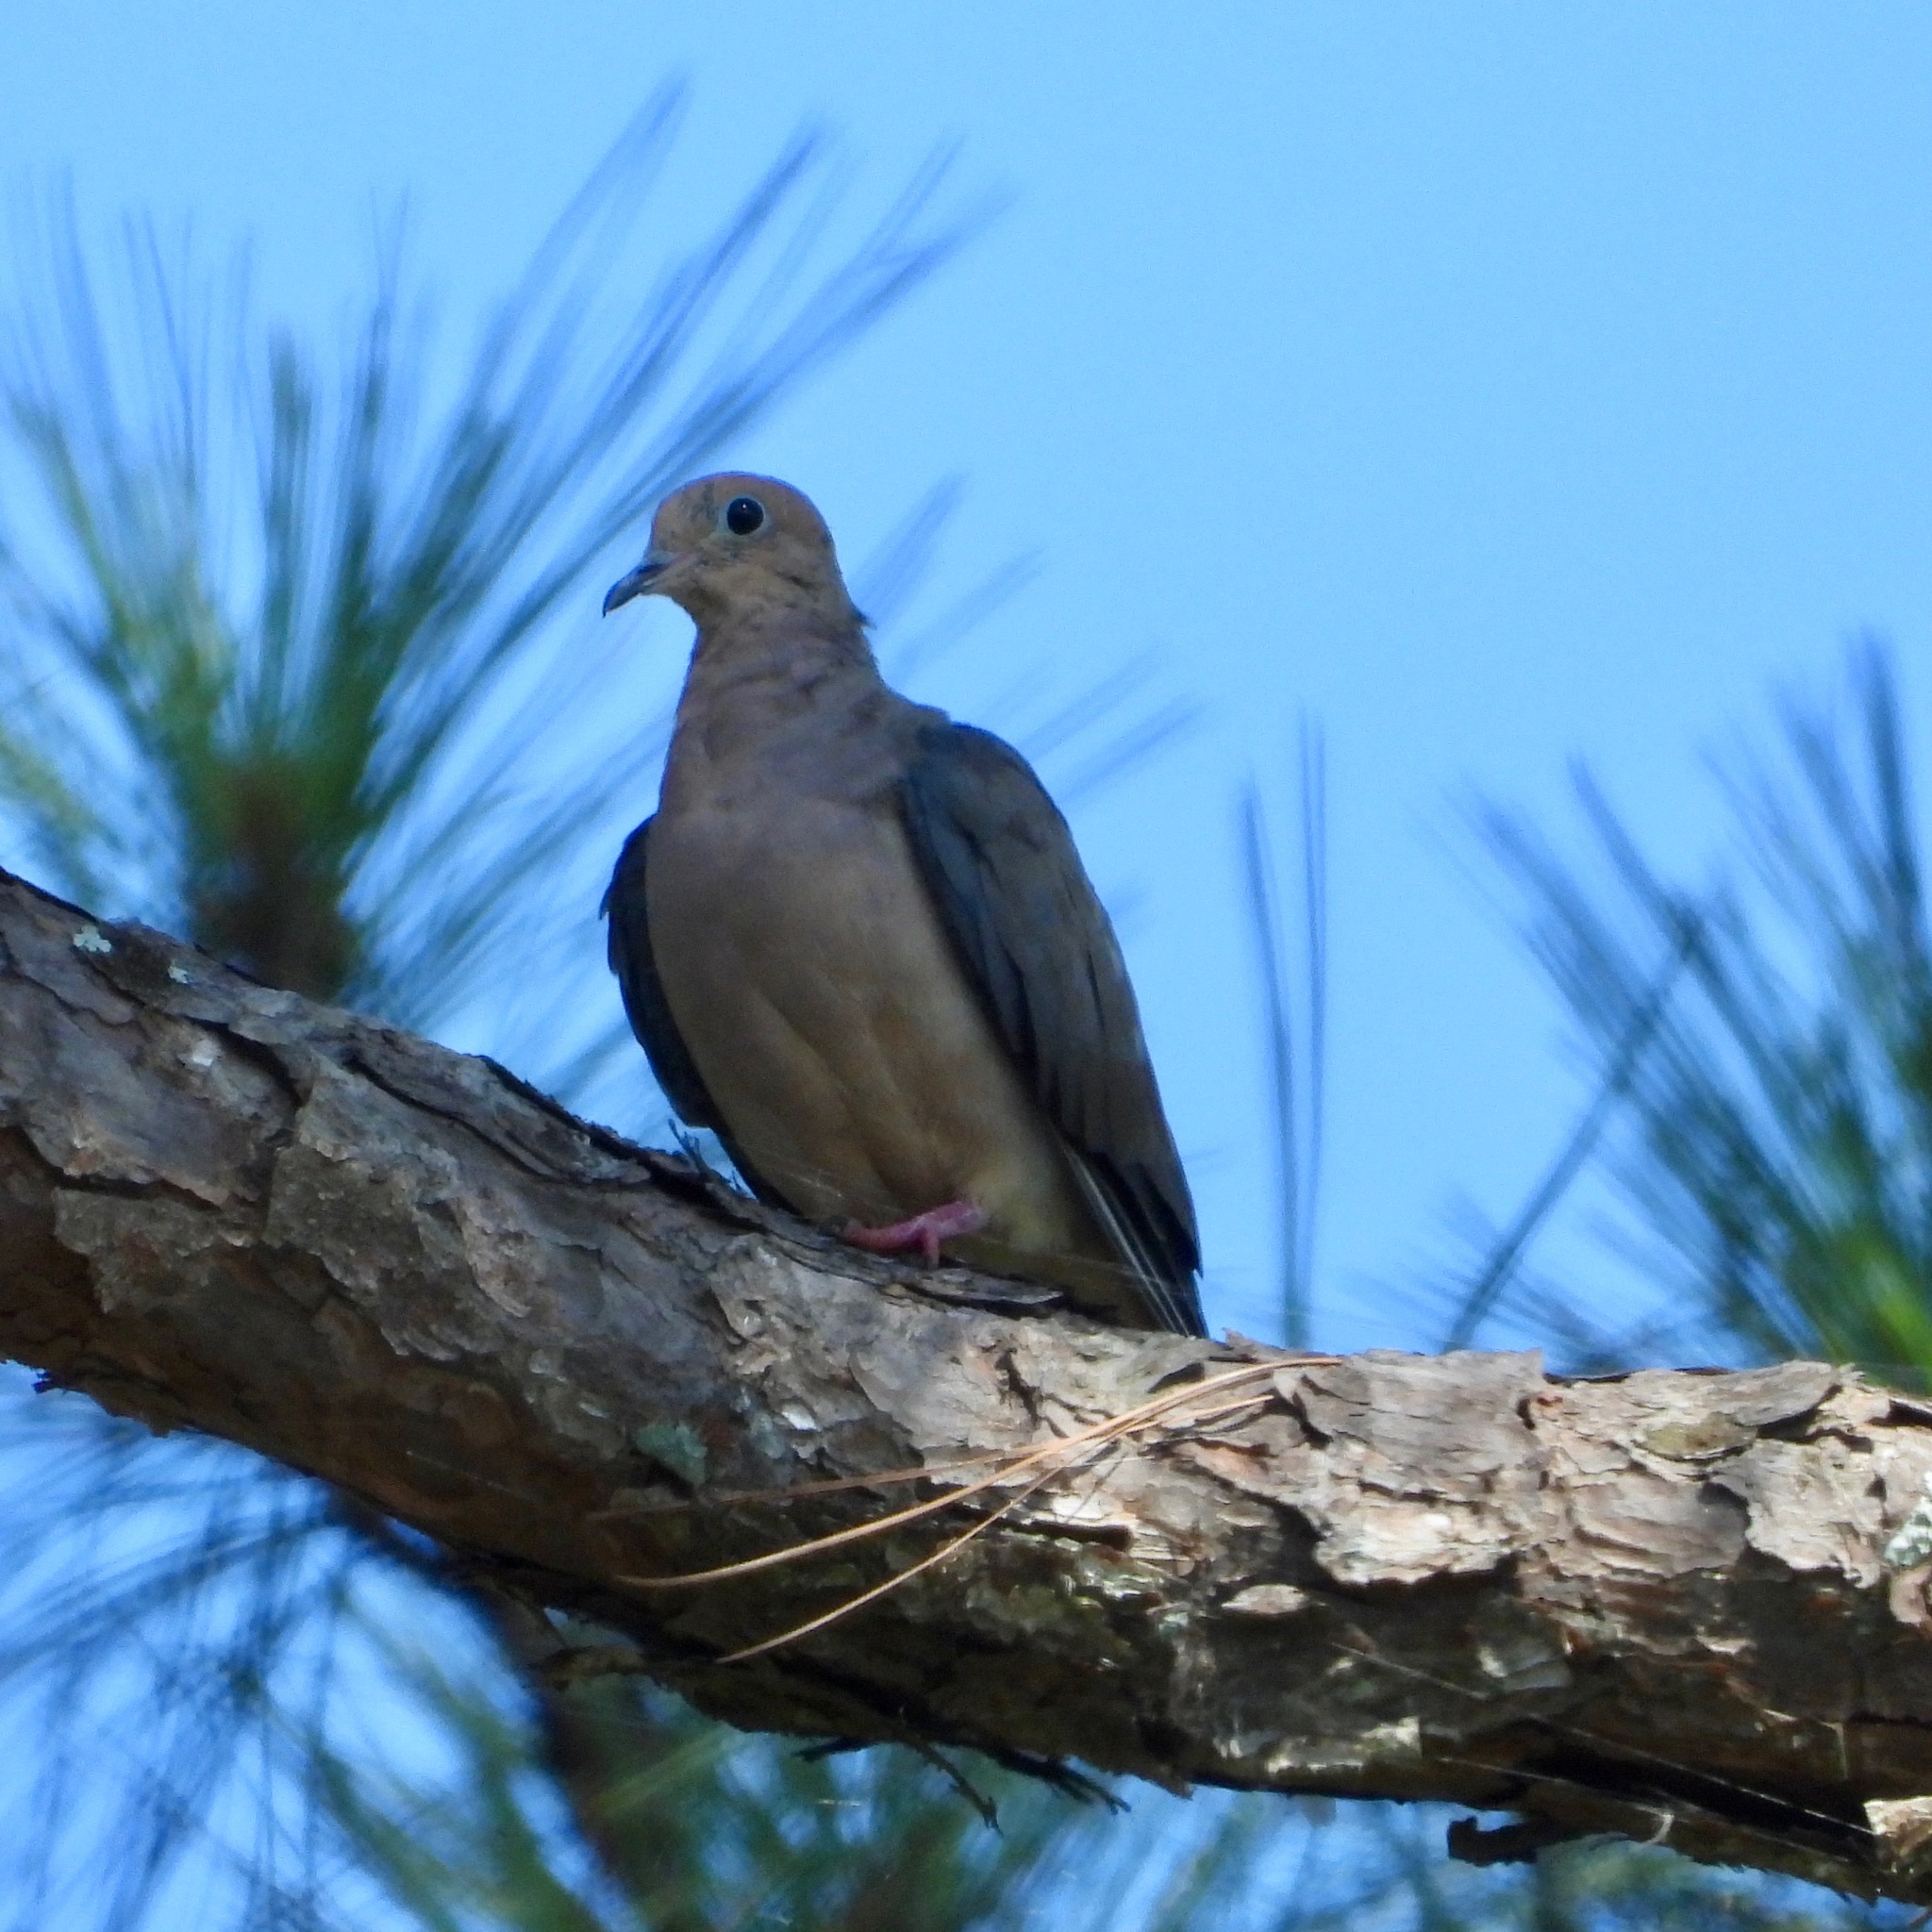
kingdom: Animalia
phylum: Chordata
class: Aves
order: Columbiformes
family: Columbidae
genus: Zenaida
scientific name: Zenaida macroura
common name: Mourning dove
